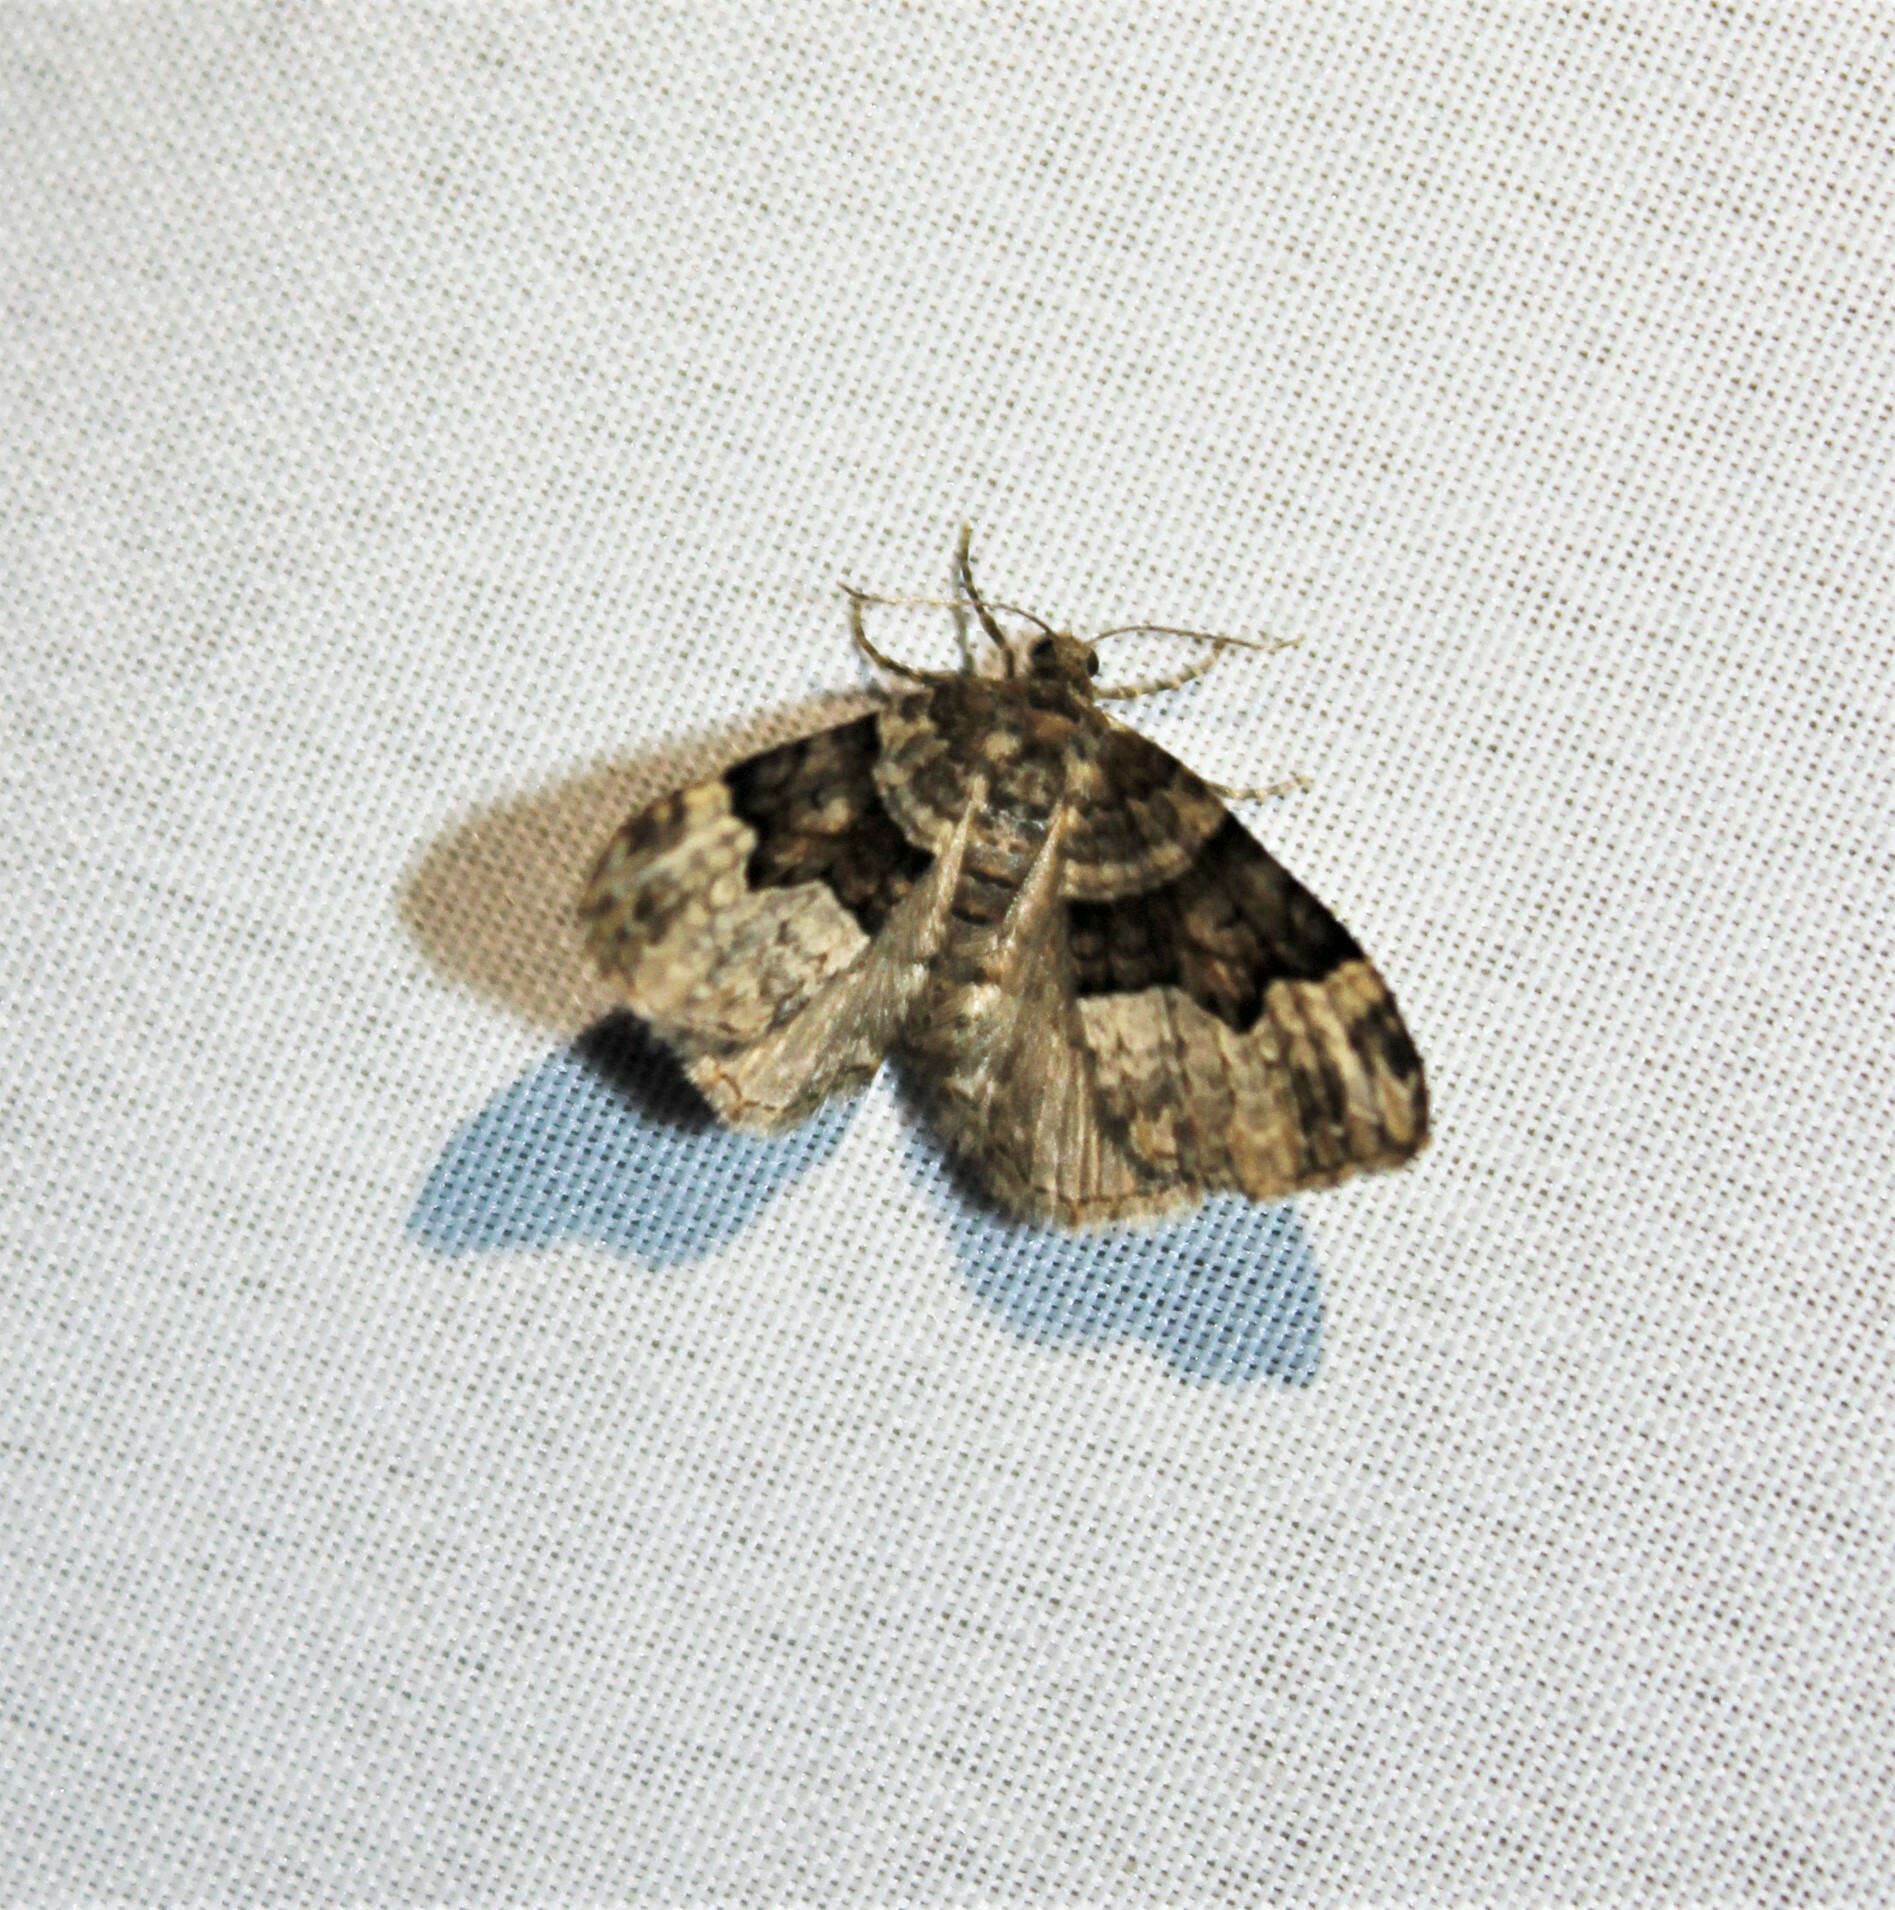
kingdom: Animalia
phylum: Arthropoda
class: Insecta
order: Lepidoptera
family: Geometridae
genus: Xanthorhoe
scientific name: Xanthorhoe lacustrata
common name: Toothed brown carpet
